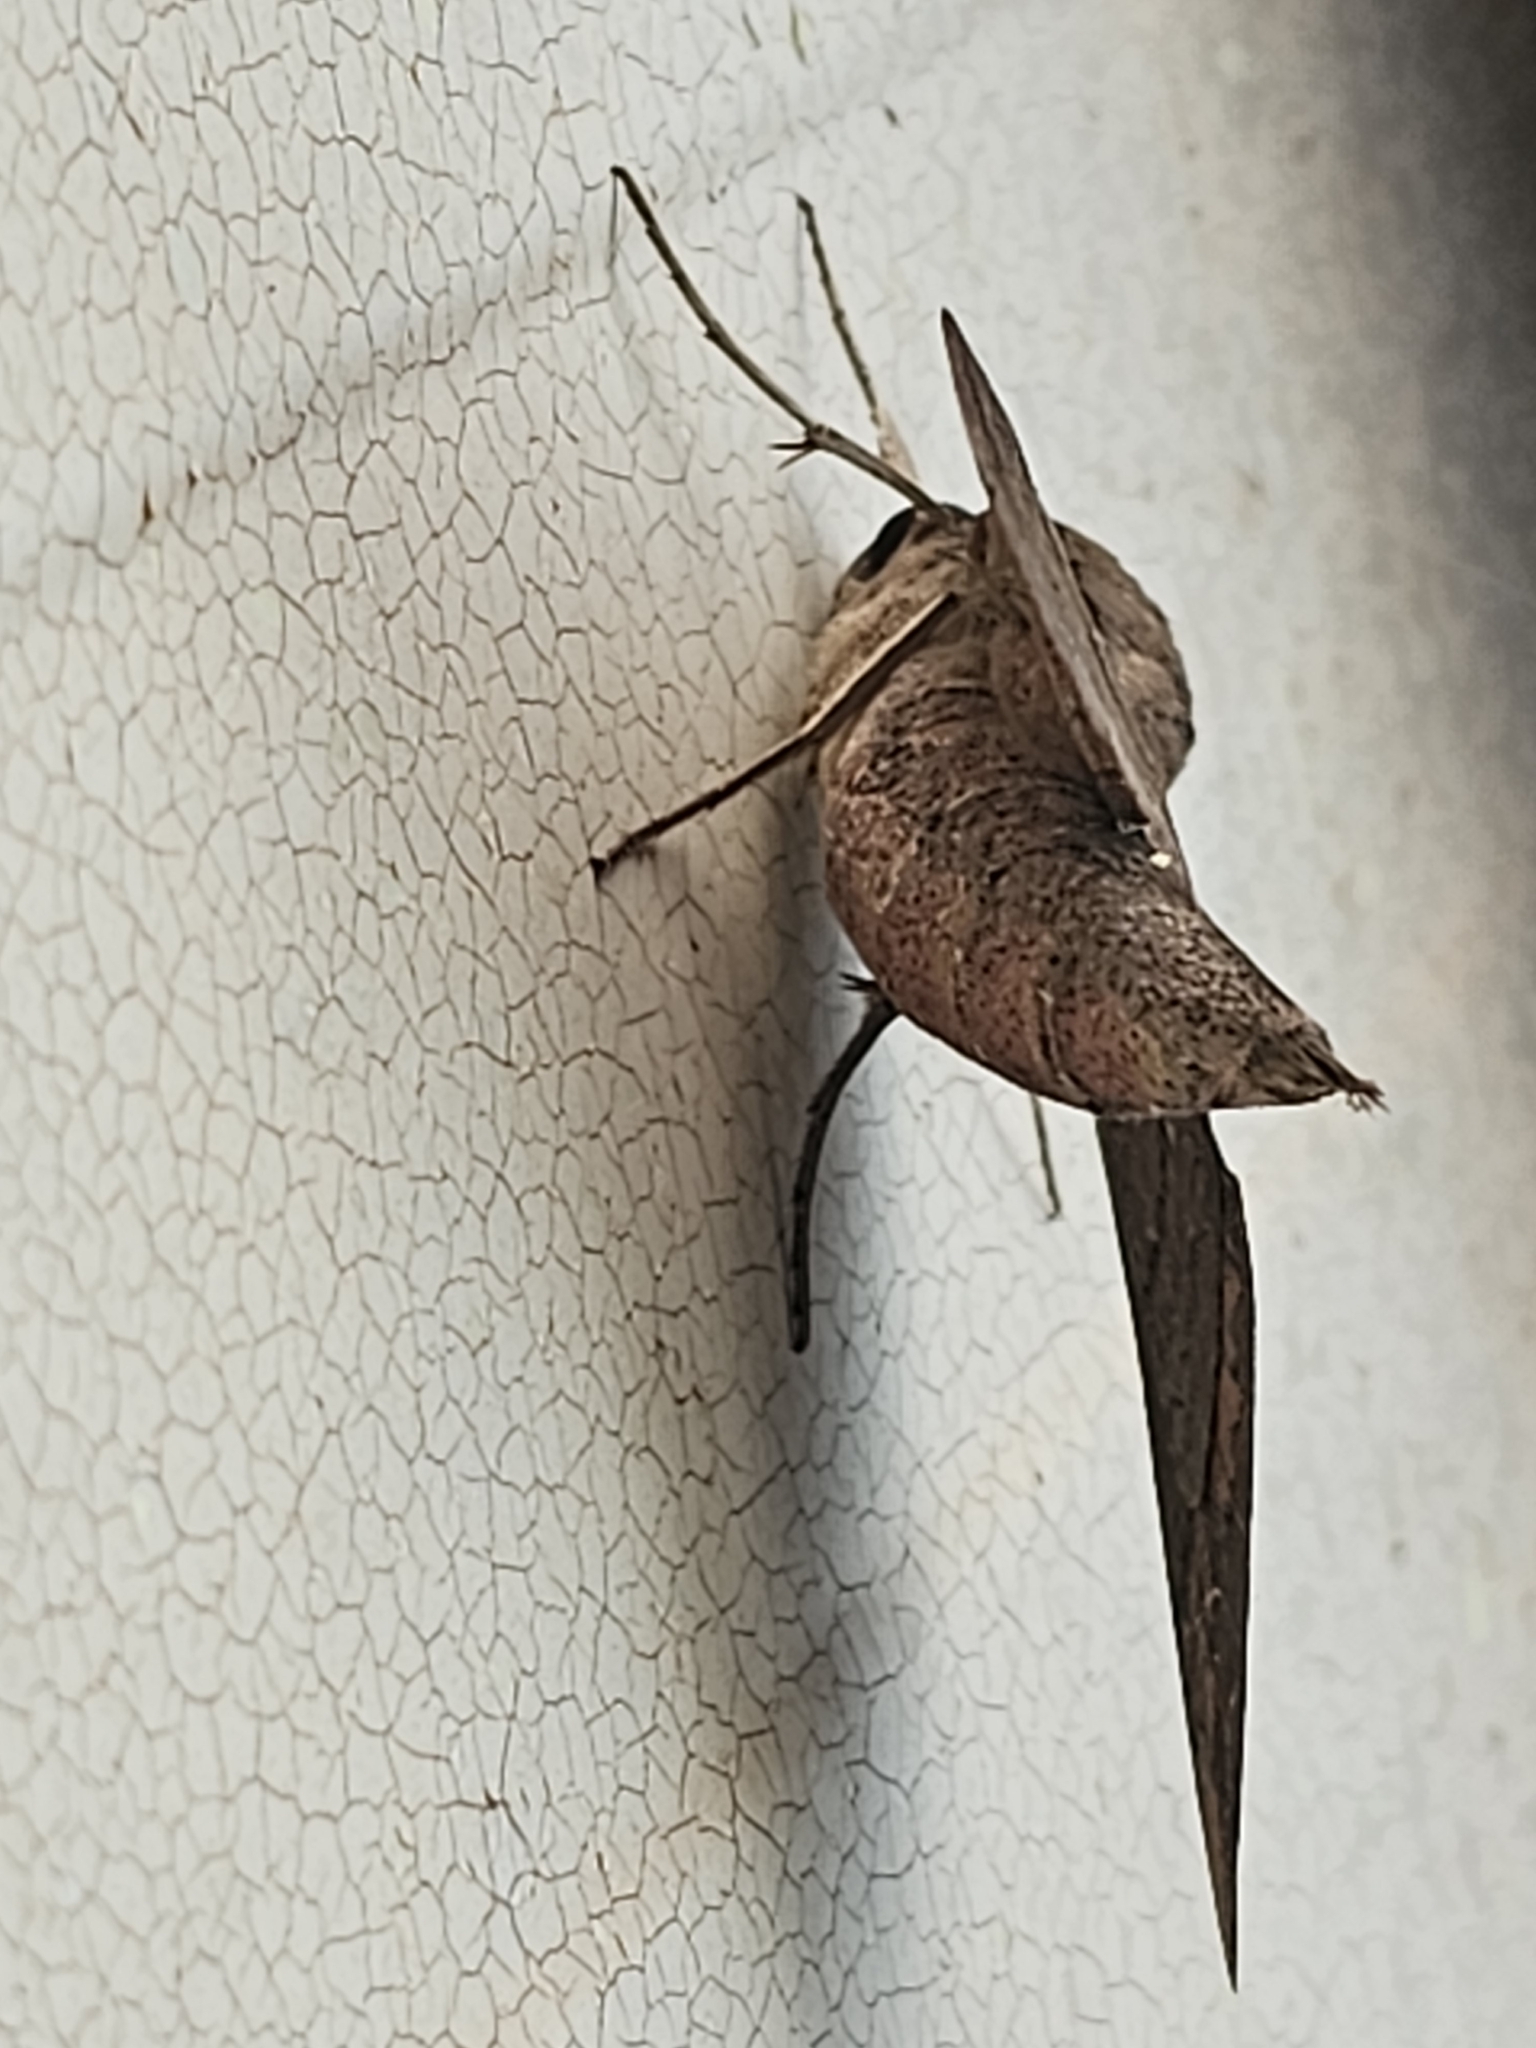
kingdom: Animalia
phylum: Arthropoda
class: Insecta
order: Lepidoptera
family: Sphingidae
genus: Pachylioides
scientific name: Pachylioides resumens
